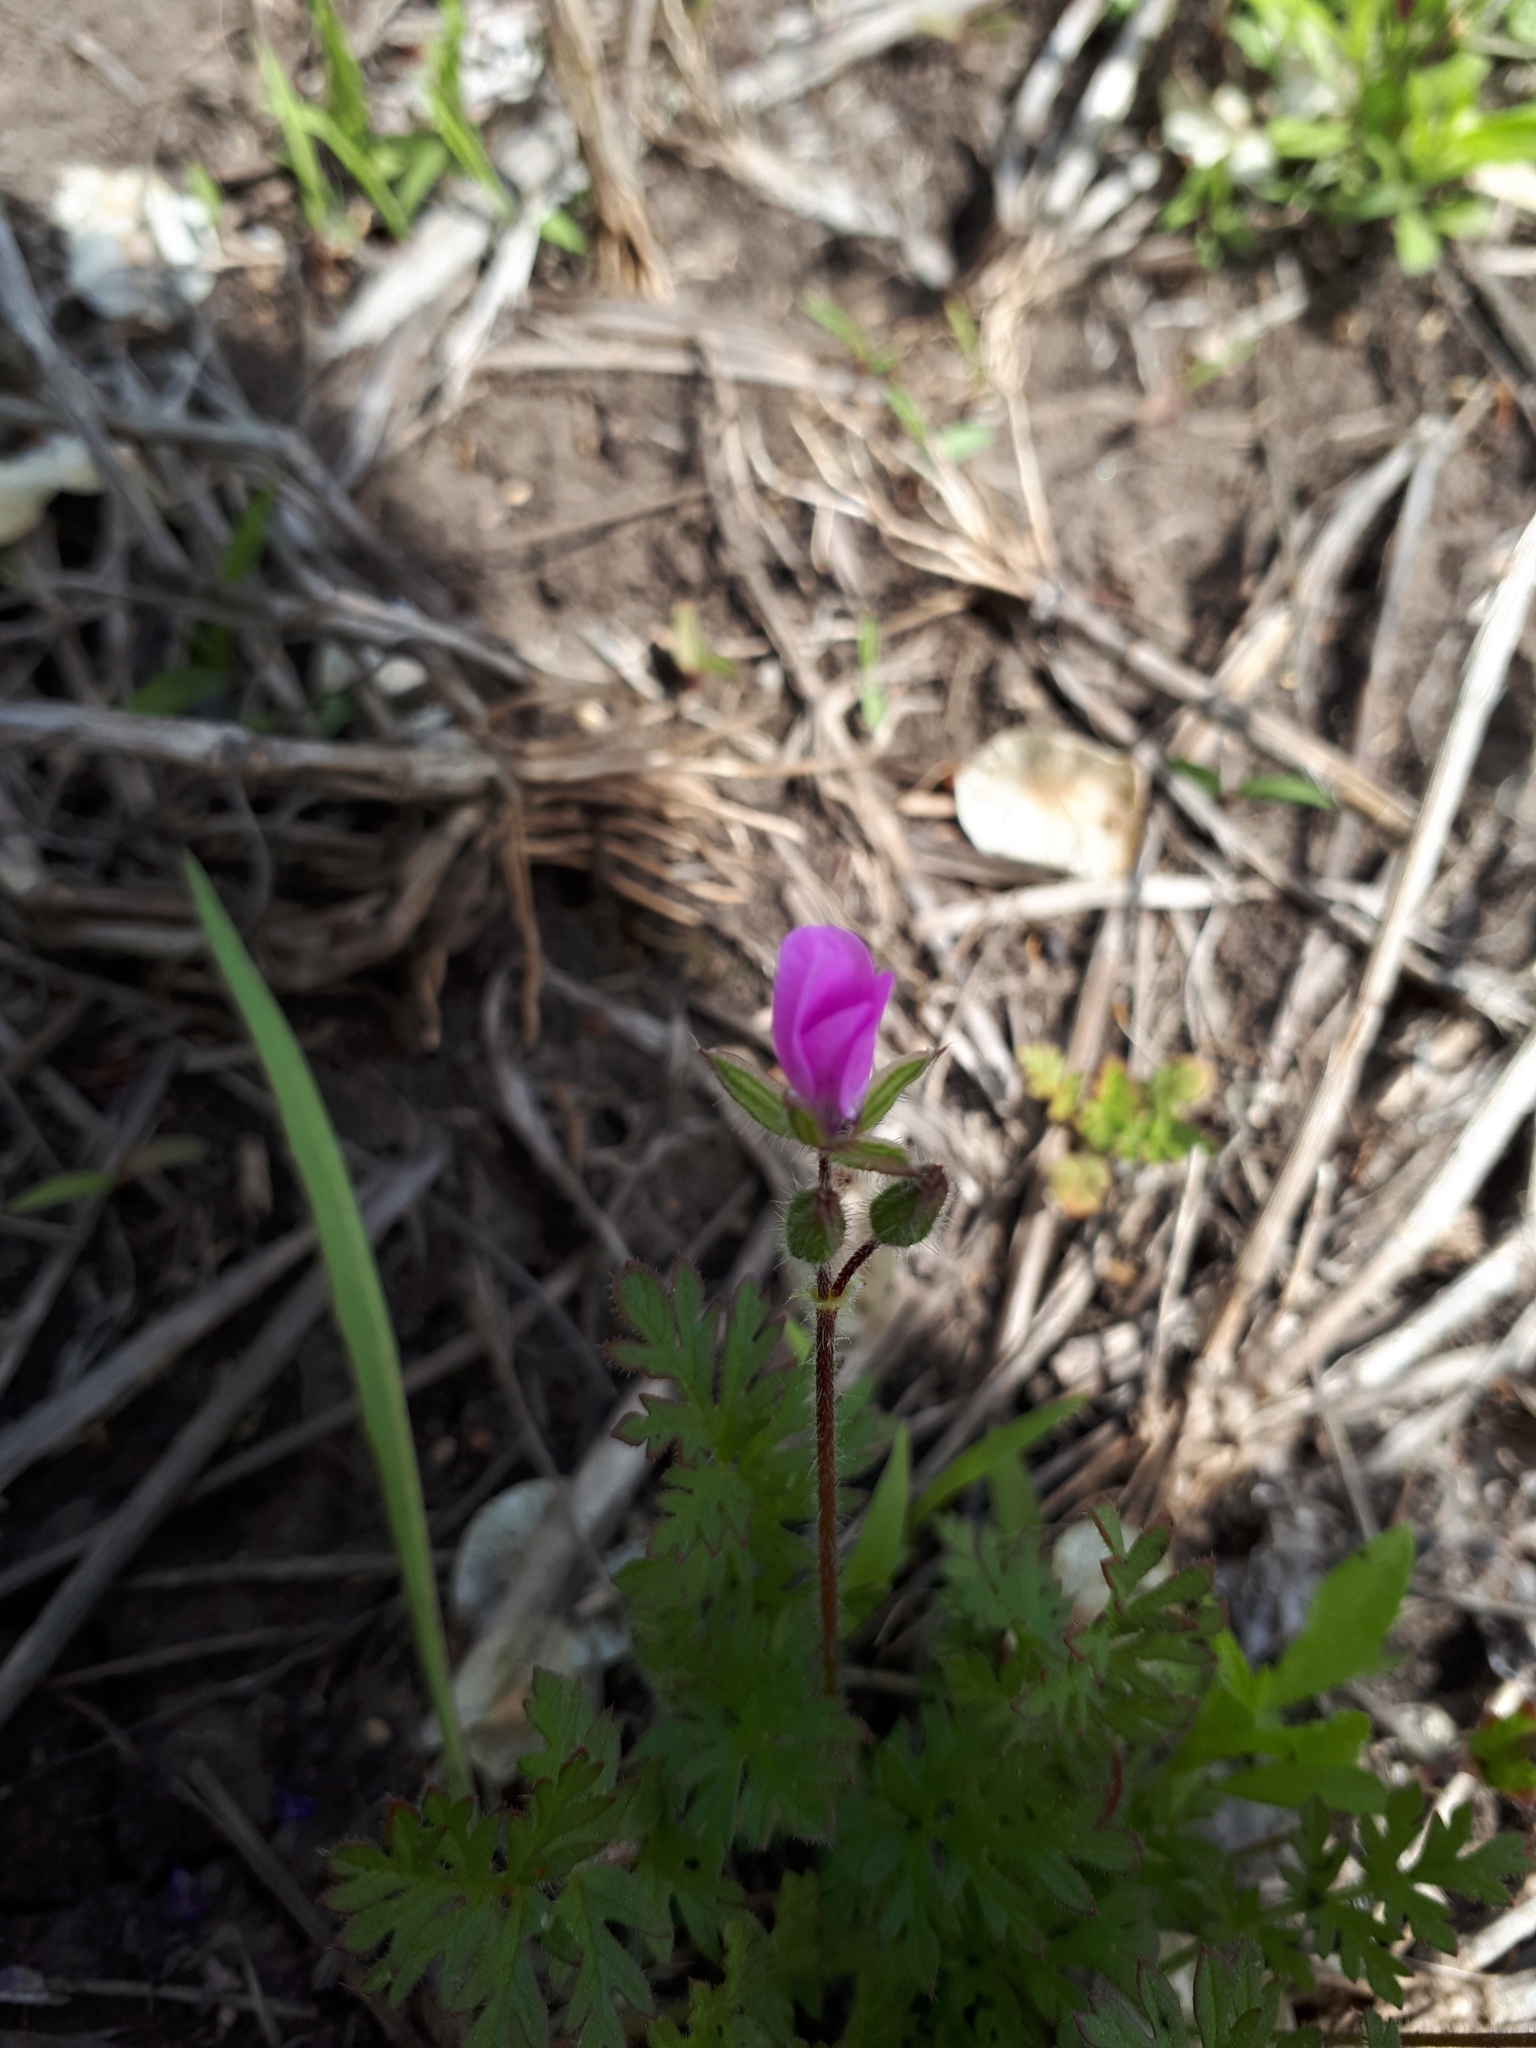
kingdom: Plantae
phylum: Tracheophyta
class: Magnoliopsida
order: Geraniales
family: Geraniaceae
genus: Erodium
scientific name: Erodium cicutarium
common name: Common stork's-bill
